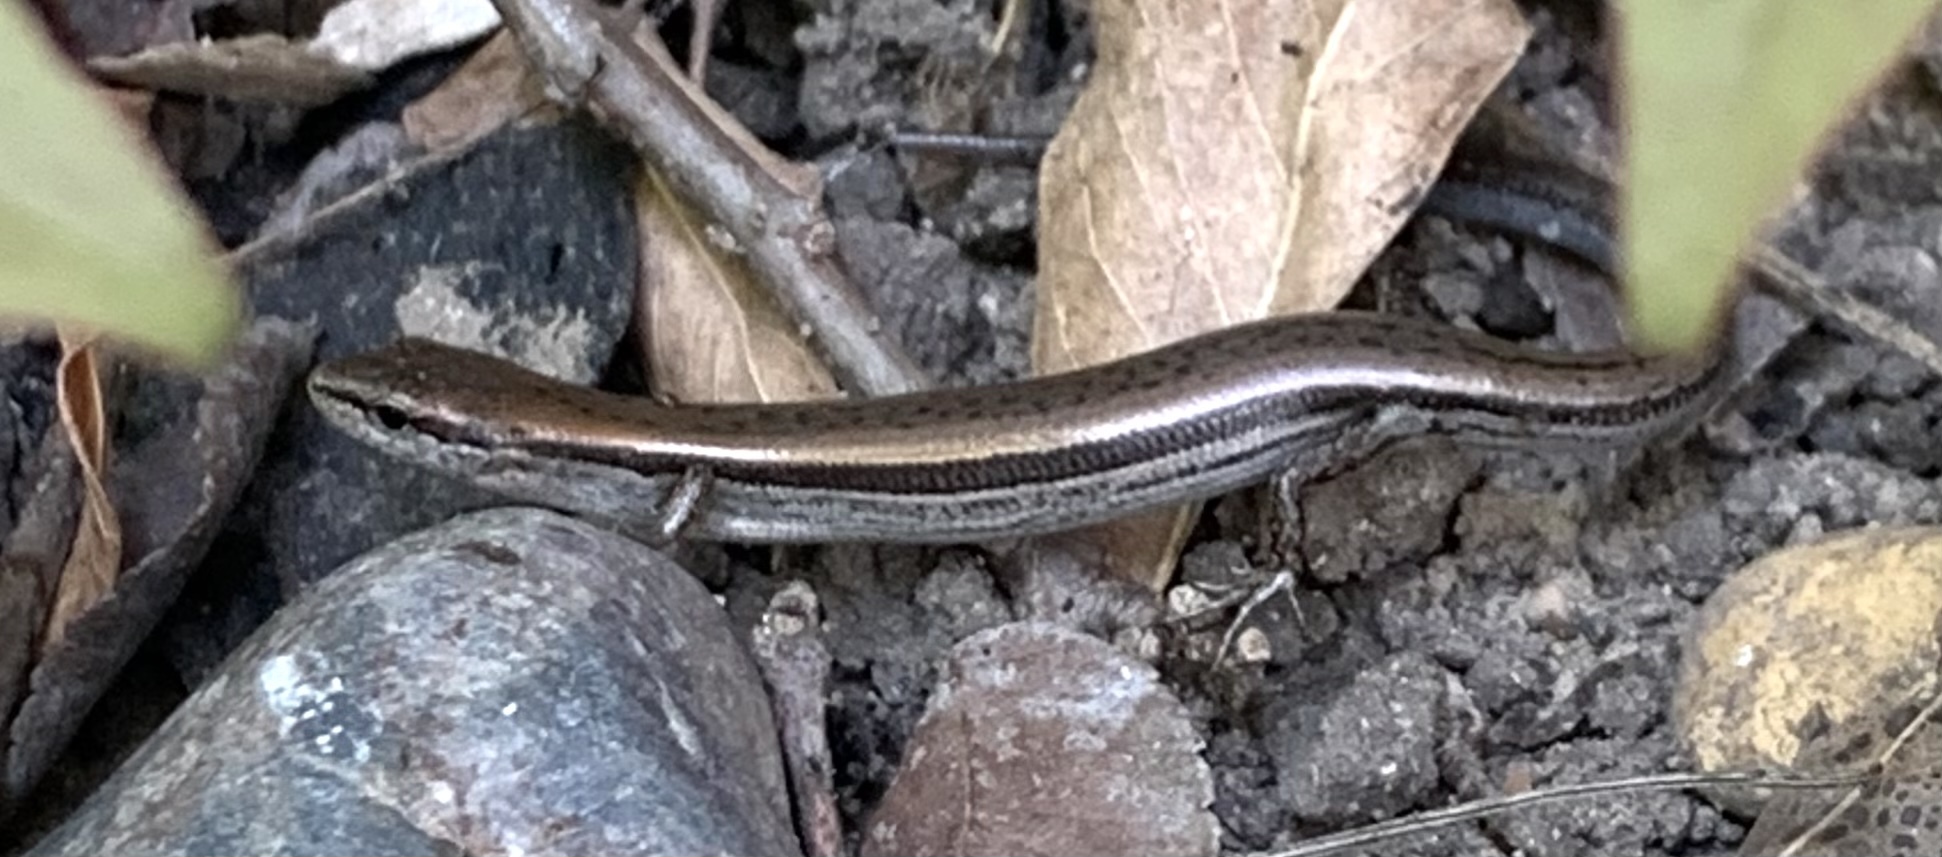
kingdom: Animalia
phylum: Chordata
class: Squamata
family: Scincidae
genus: Scincella
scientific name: Scincella lateralis
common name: Ground skink
